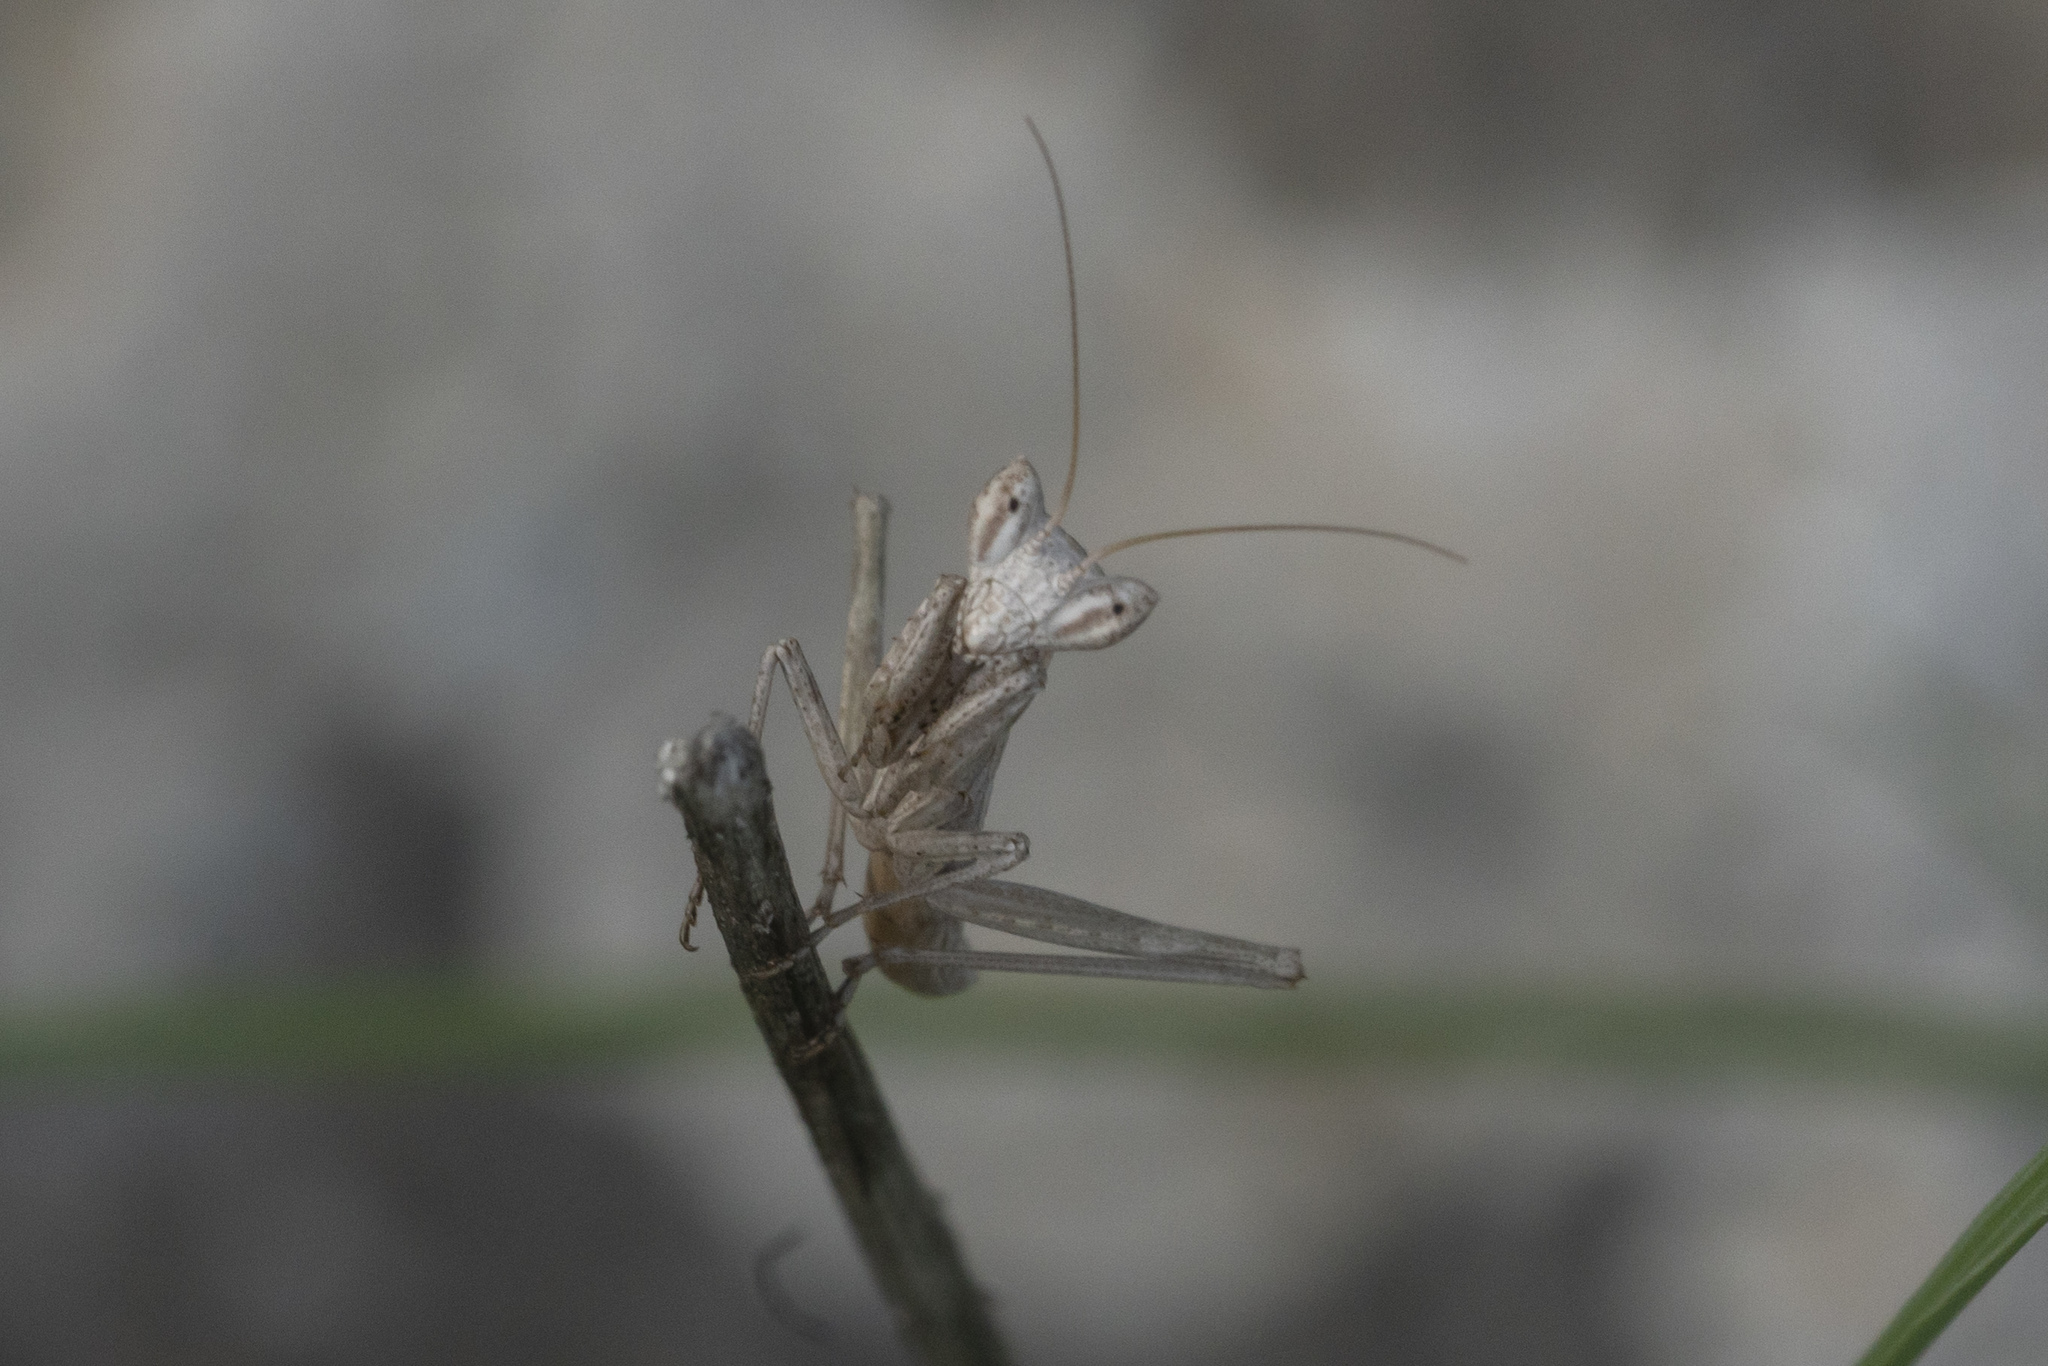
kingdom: Animalia
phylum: Arthropoda
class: Insecta
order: Mantodea
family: Amelidae
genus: Ameles
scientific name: Ameles heldreichi
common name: Heldreich's dwarf mantis
